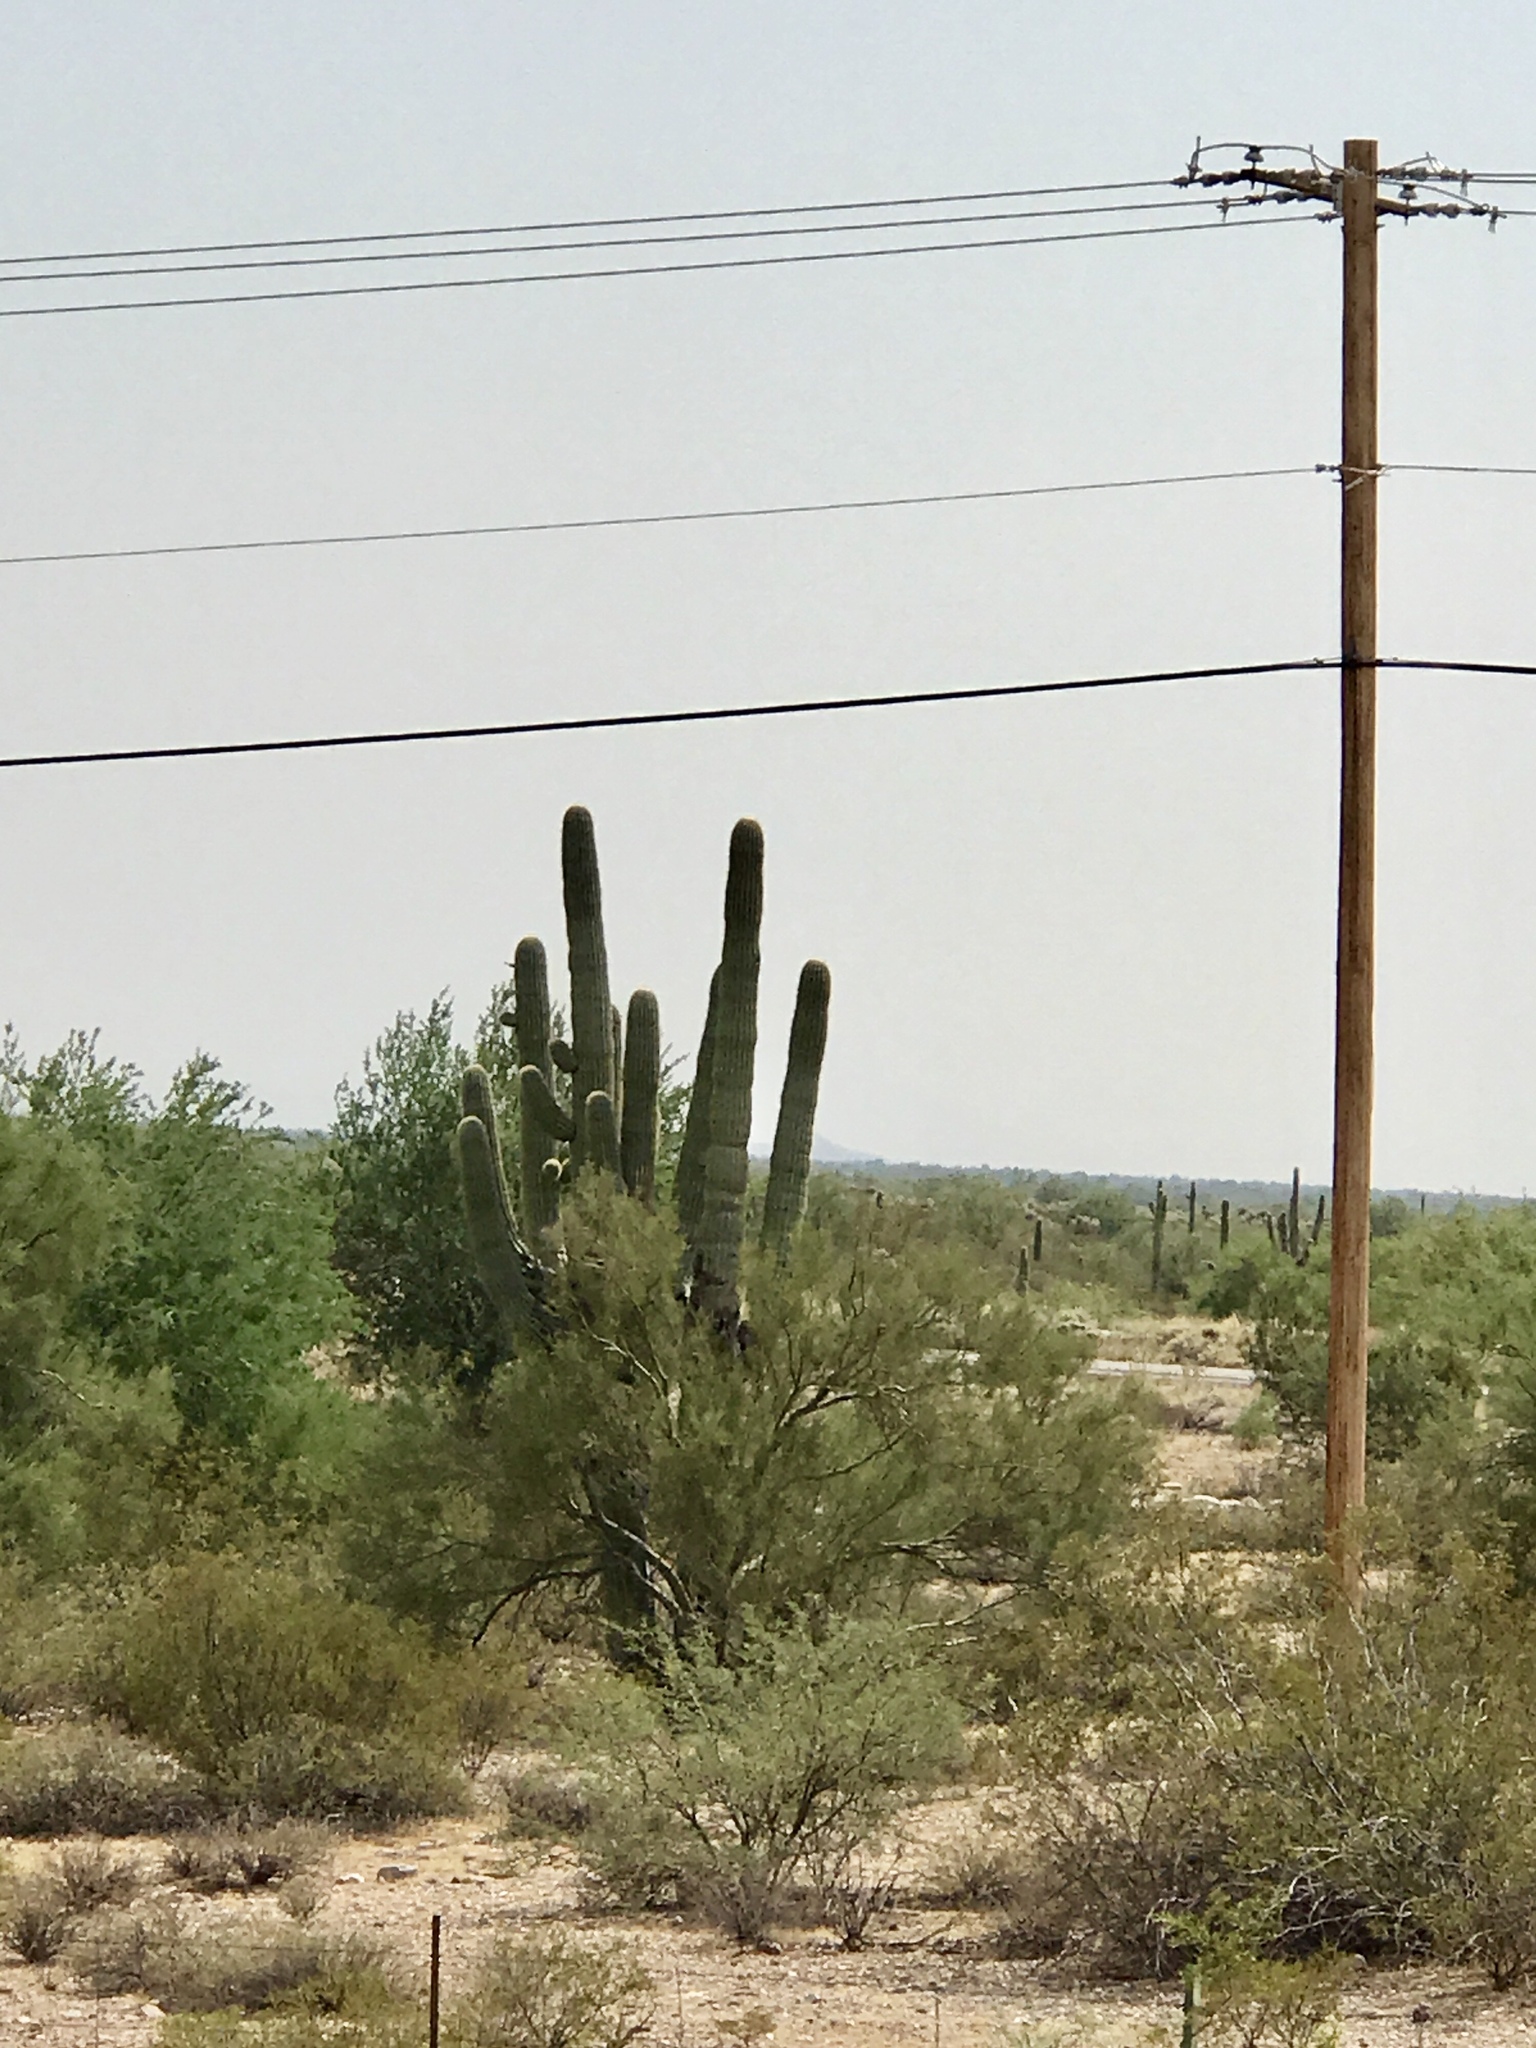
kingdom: Plantae
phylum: Tracheophyta
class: Magnoliopsida
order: Caryophyllales
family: Cactaceae
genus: Carnegiea
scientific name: Carnegiea gigantea
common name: Saguaro
